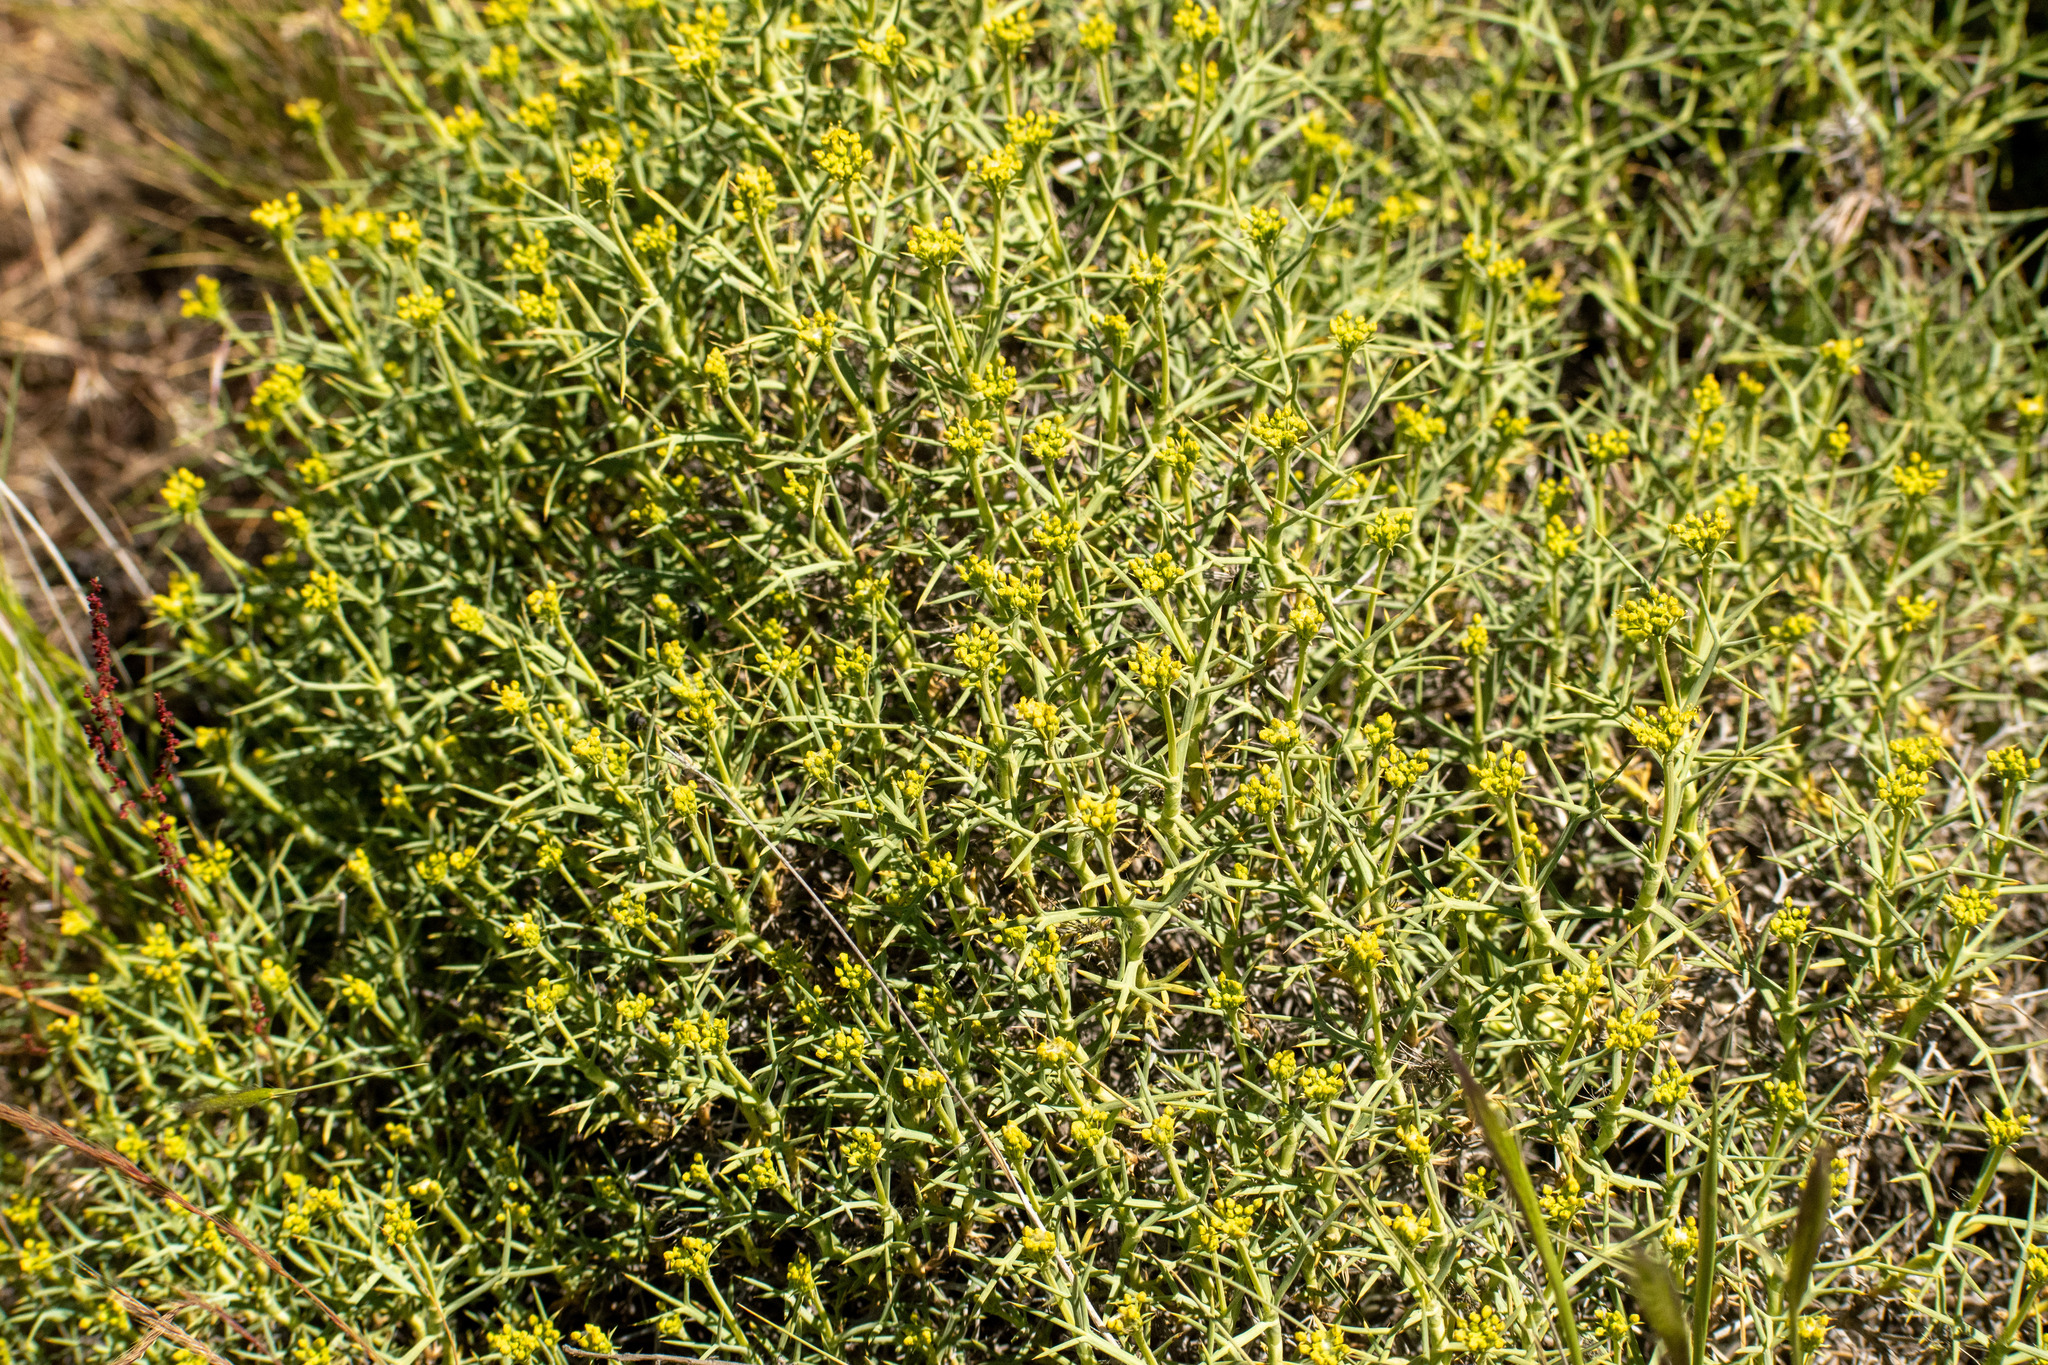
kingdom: Plantae
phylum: Tracheophyta
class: Magnoliopsida
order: Apiales
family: Apiaceae
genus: Azorella
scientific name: Azorella prolifera
